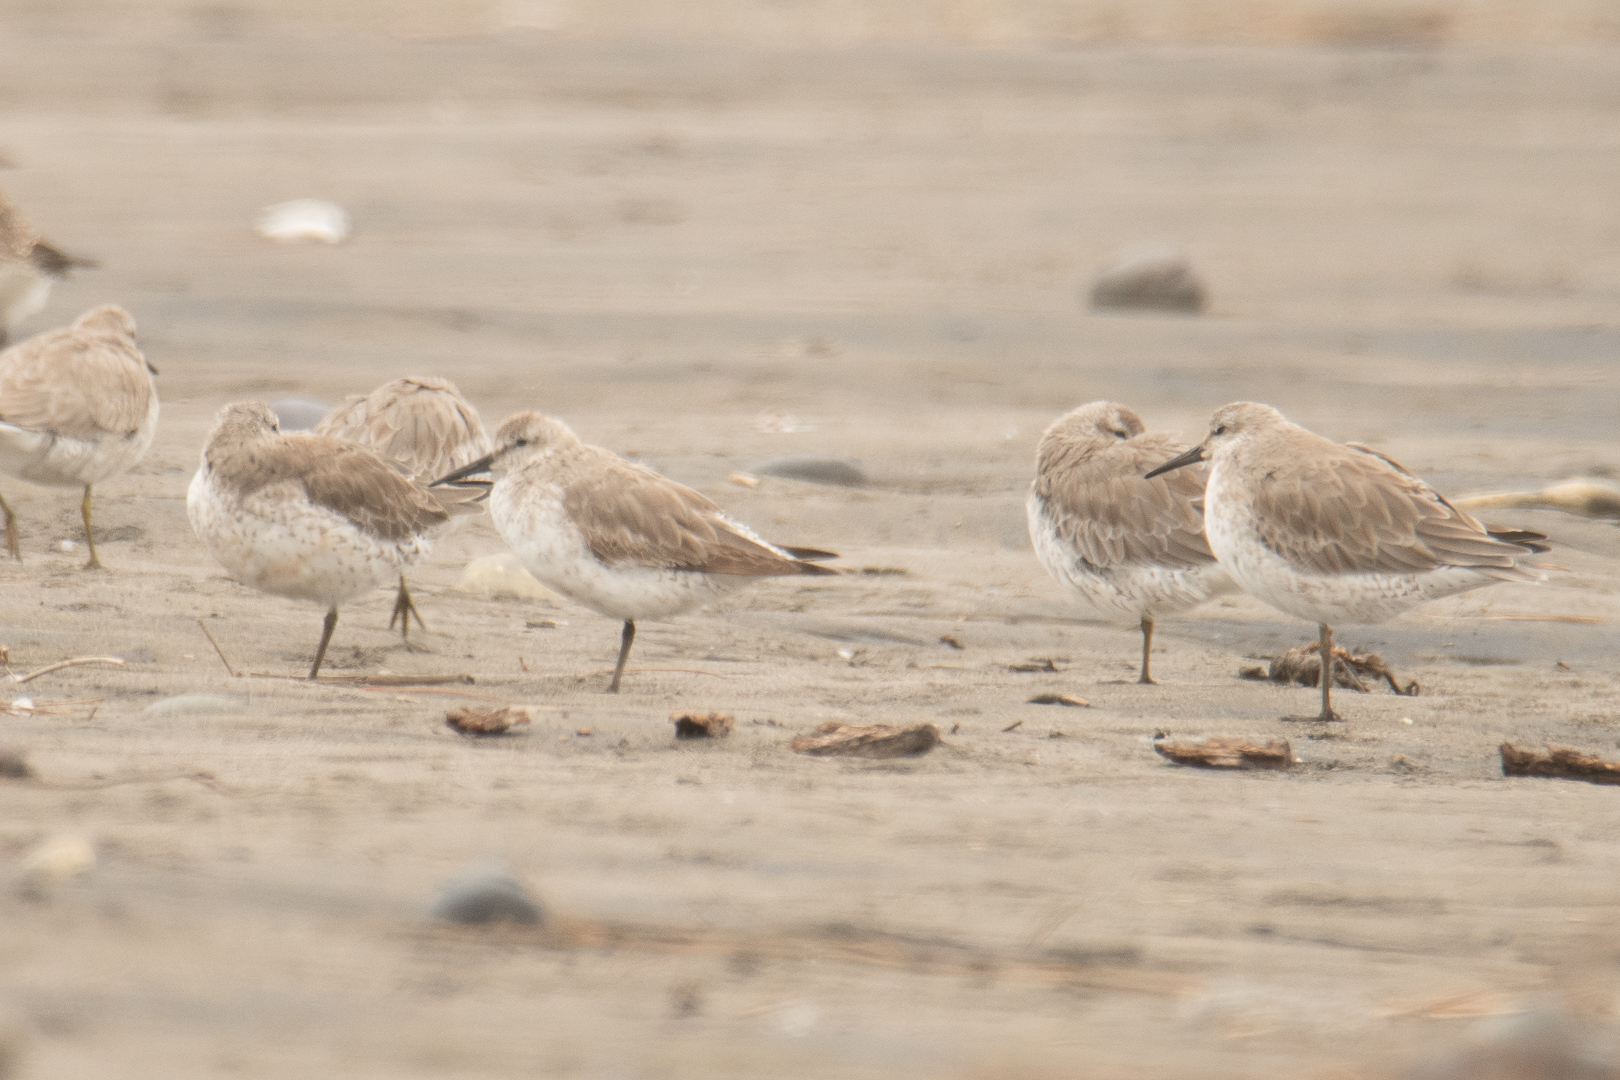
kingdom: Animalia
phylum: Chordata
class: Aves
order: Charadriiformes
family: Scolopacidae
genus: Calidris
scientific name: Calidris canutus
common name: Red knot
